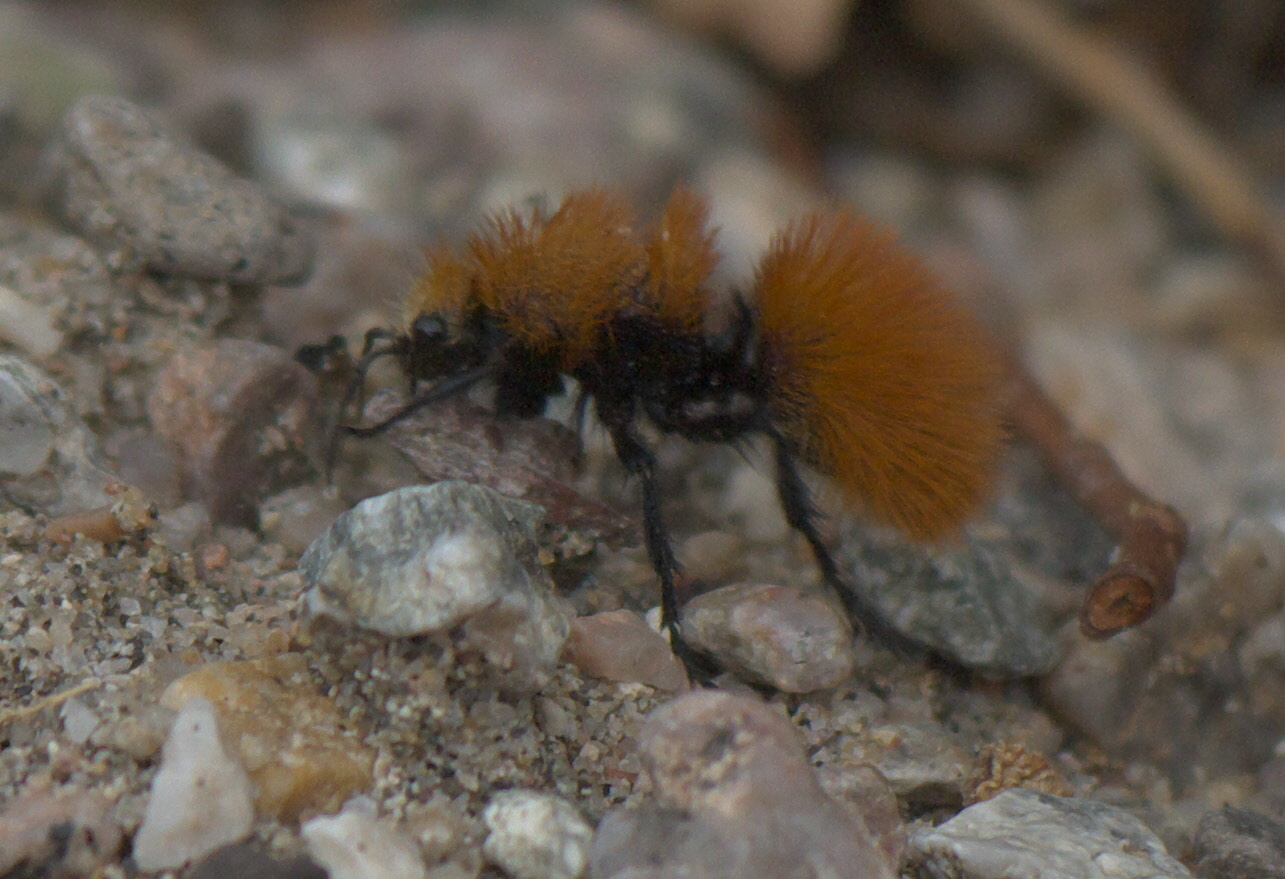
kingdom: Animalia
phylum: Arthropoda
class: Insecta
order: Hymenoptera
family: Mutillidae
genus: Dasymutilla
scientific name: Dasymutilla satanas
